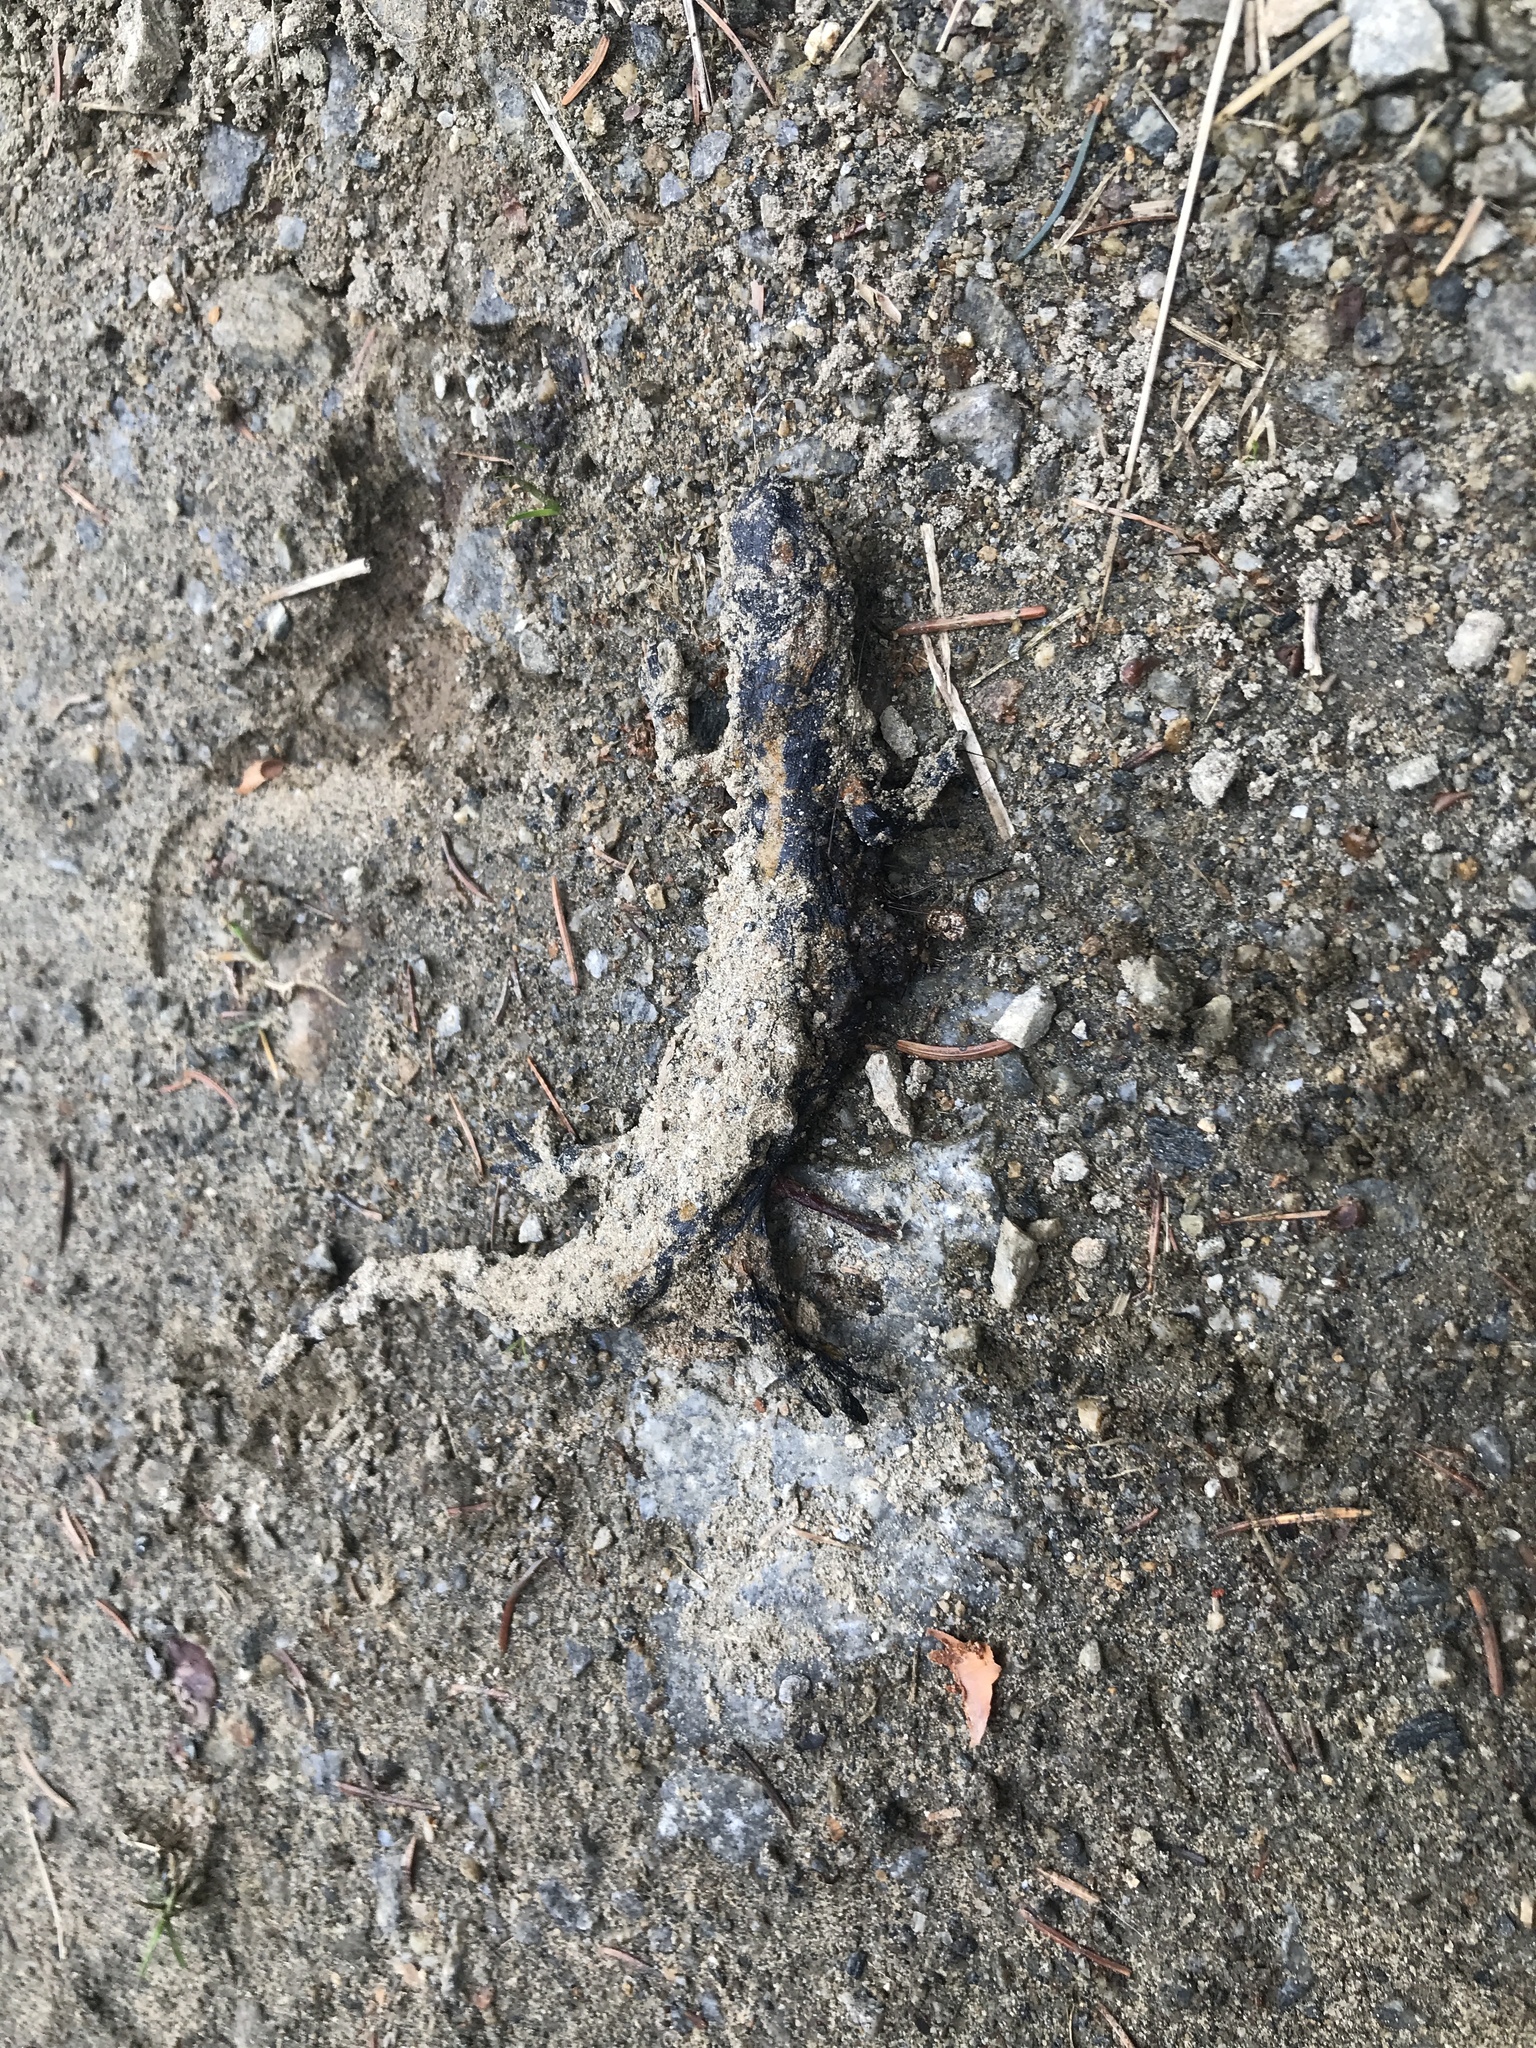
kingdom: Animalia
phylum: Chordata
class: Amphibia
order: Caudata
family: Salamandridae
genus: Salamandra
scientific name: Salamandra salamandra
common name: Fire salamander
